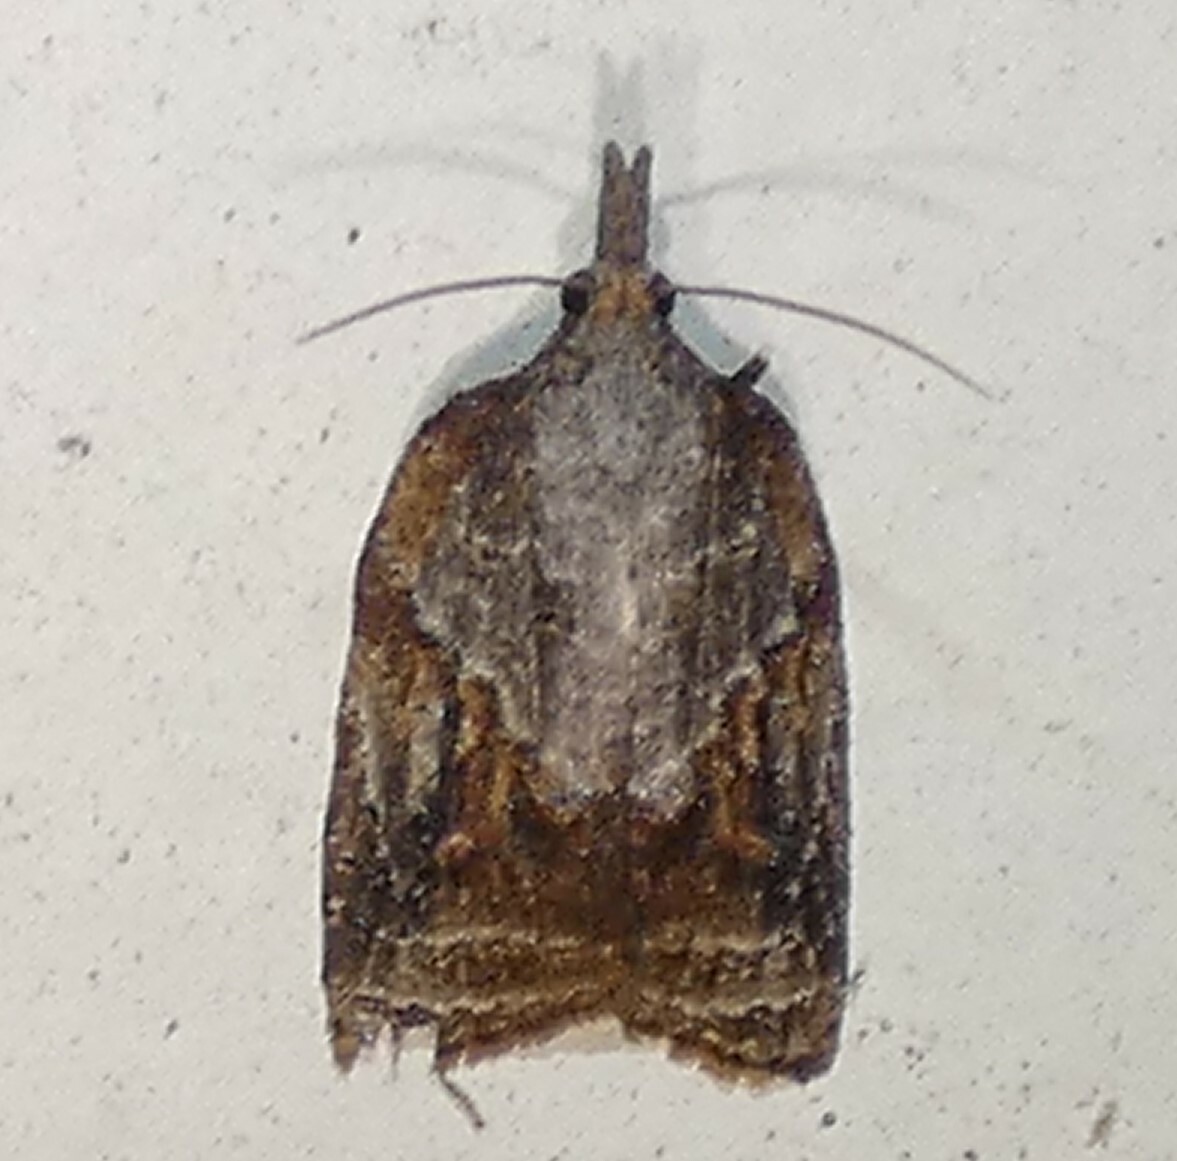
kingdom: Animalia
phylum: Arthropoda
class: Insecta
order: Lepidoptera
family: Tortricidae
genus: Platynota
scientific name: Platynota idaeusalis
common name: Tufted apple bud moth
